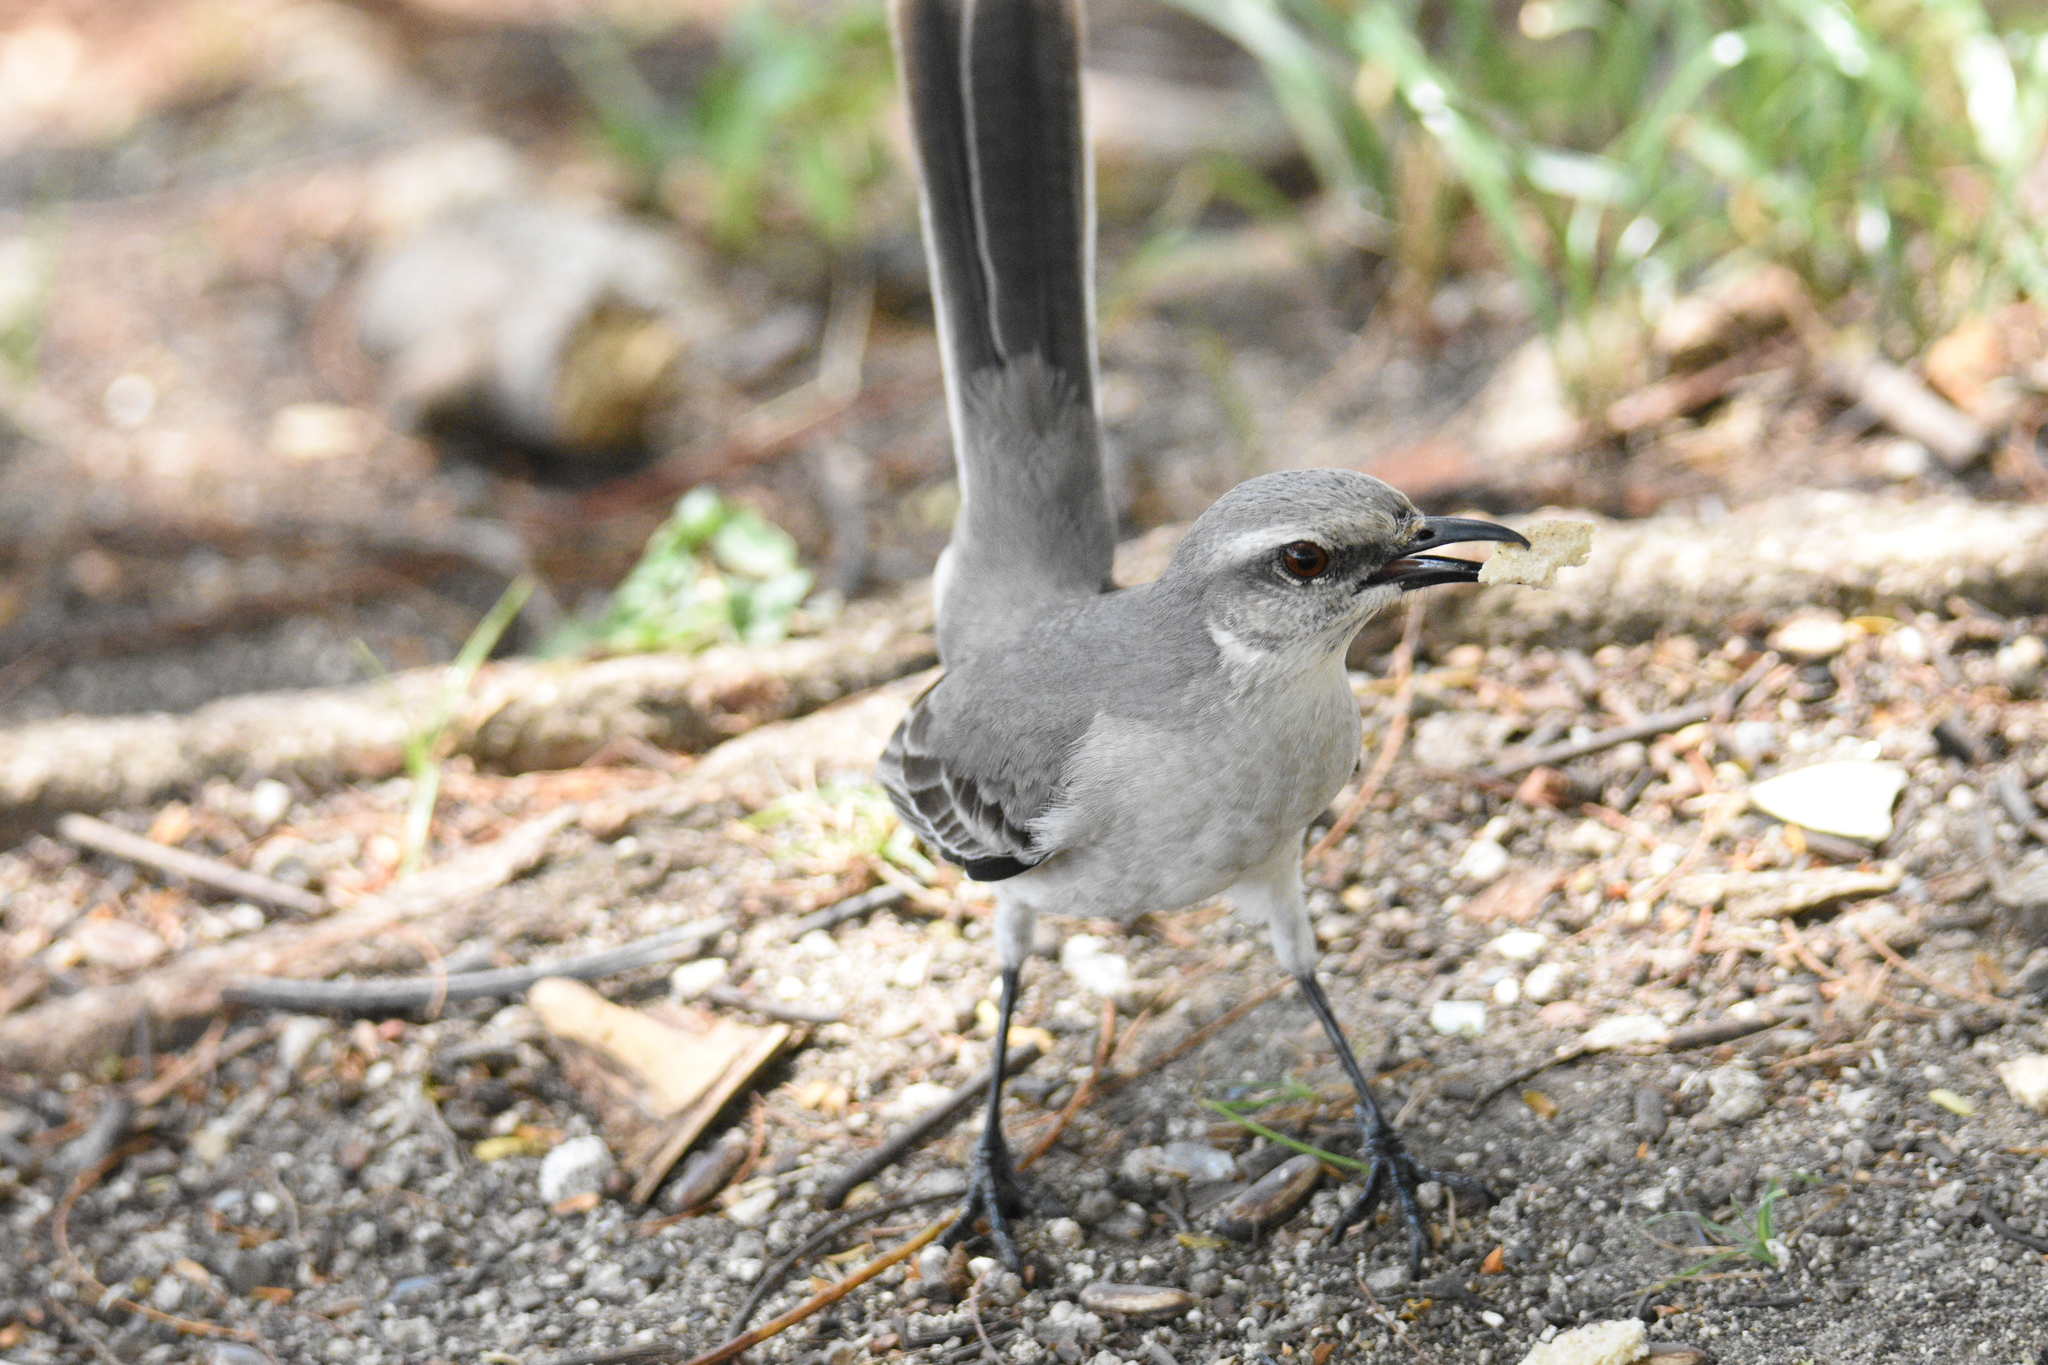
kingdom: Animalia
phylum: Chordata
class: Aves
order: Passeriformes
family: Mimidae
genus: Mimus
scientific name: Mimus gilvus
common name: Tropical mockingbird
